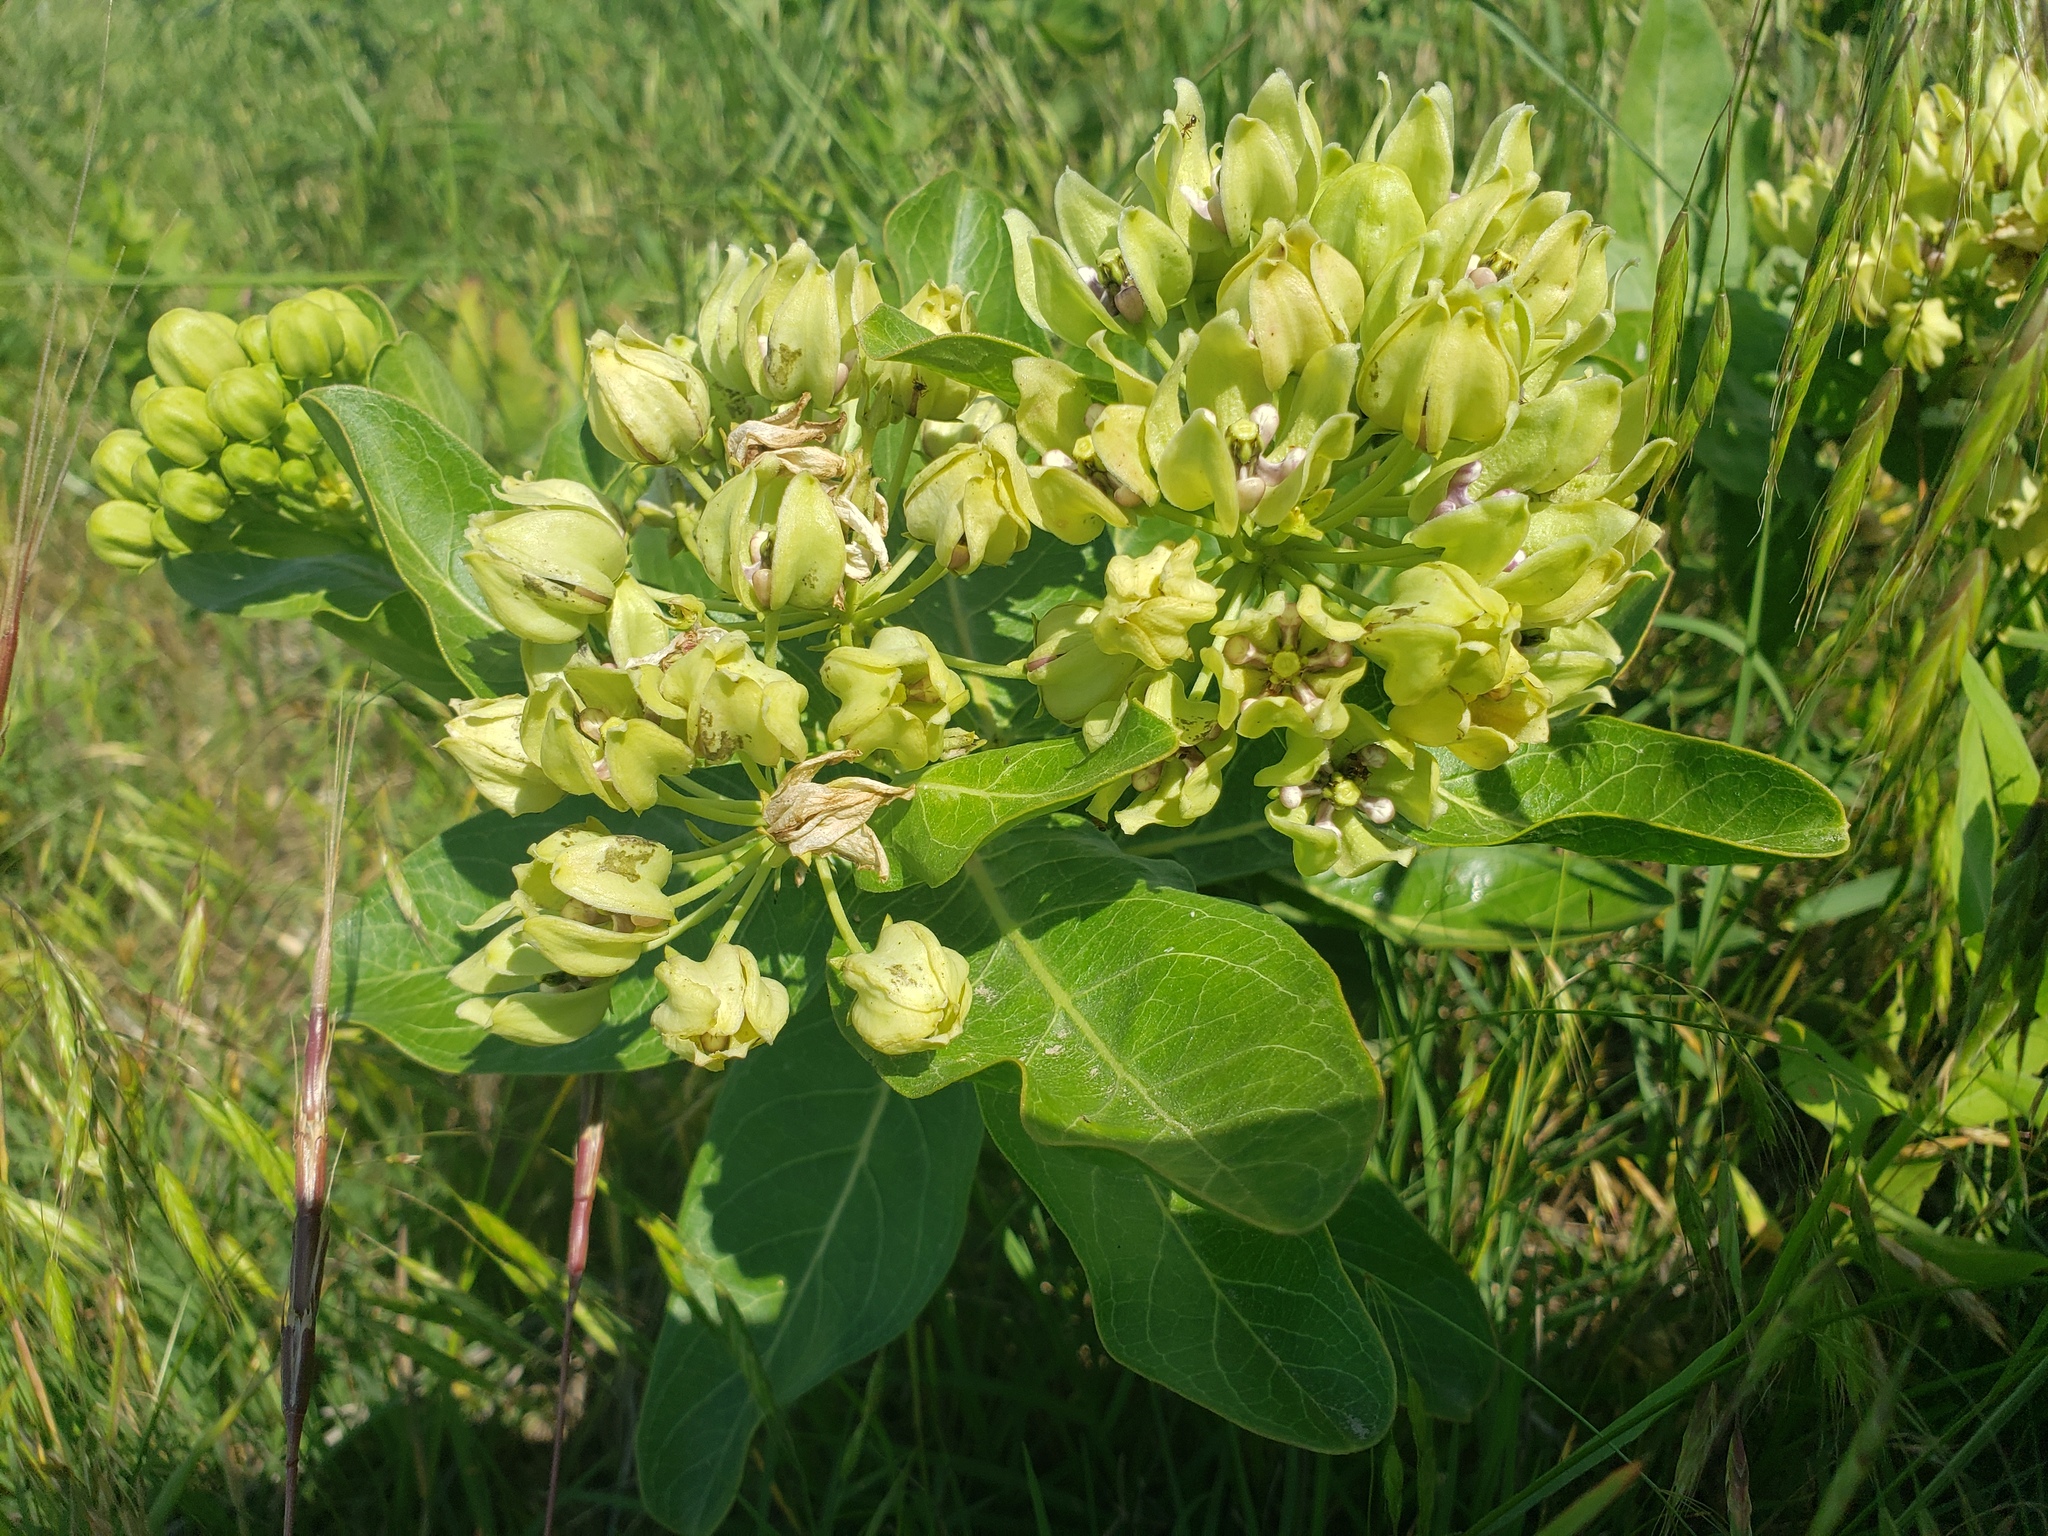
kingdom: Plantae
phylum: Tracheophyta
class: Magnoliopsida
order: Gentianales
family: Apocynaceae
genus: Asclepias
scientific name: Asclepias viridis
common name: Antelope-horns
